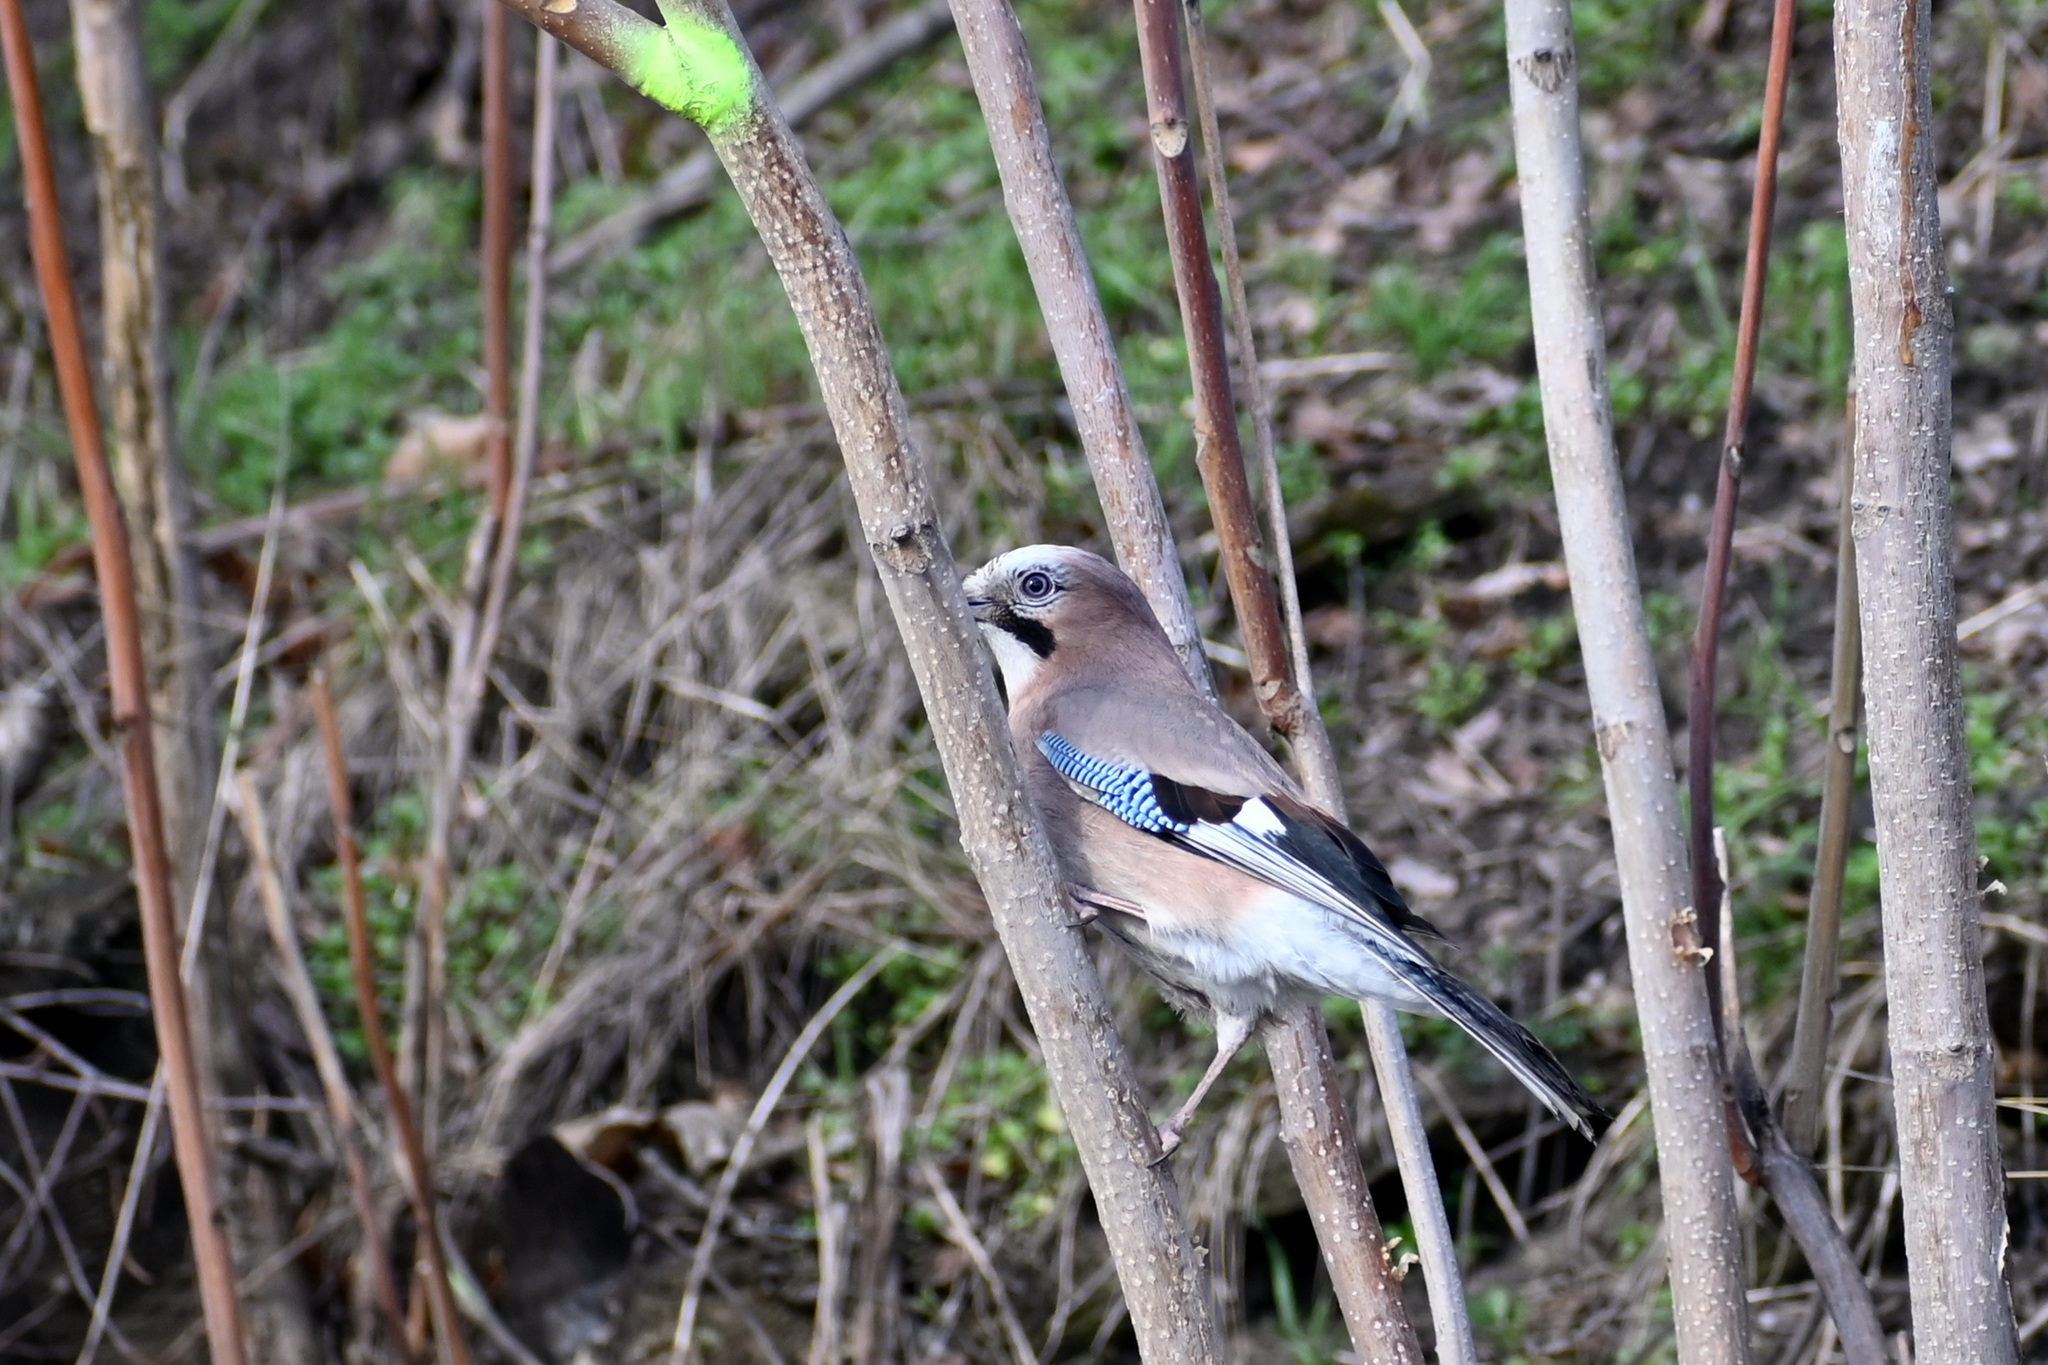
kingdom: Animalia
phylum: Chordata
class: Aves
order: Passeriformes
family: Corvidae
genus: Garrulus
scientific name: Garrulus glandarius
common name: Eurasian jay
